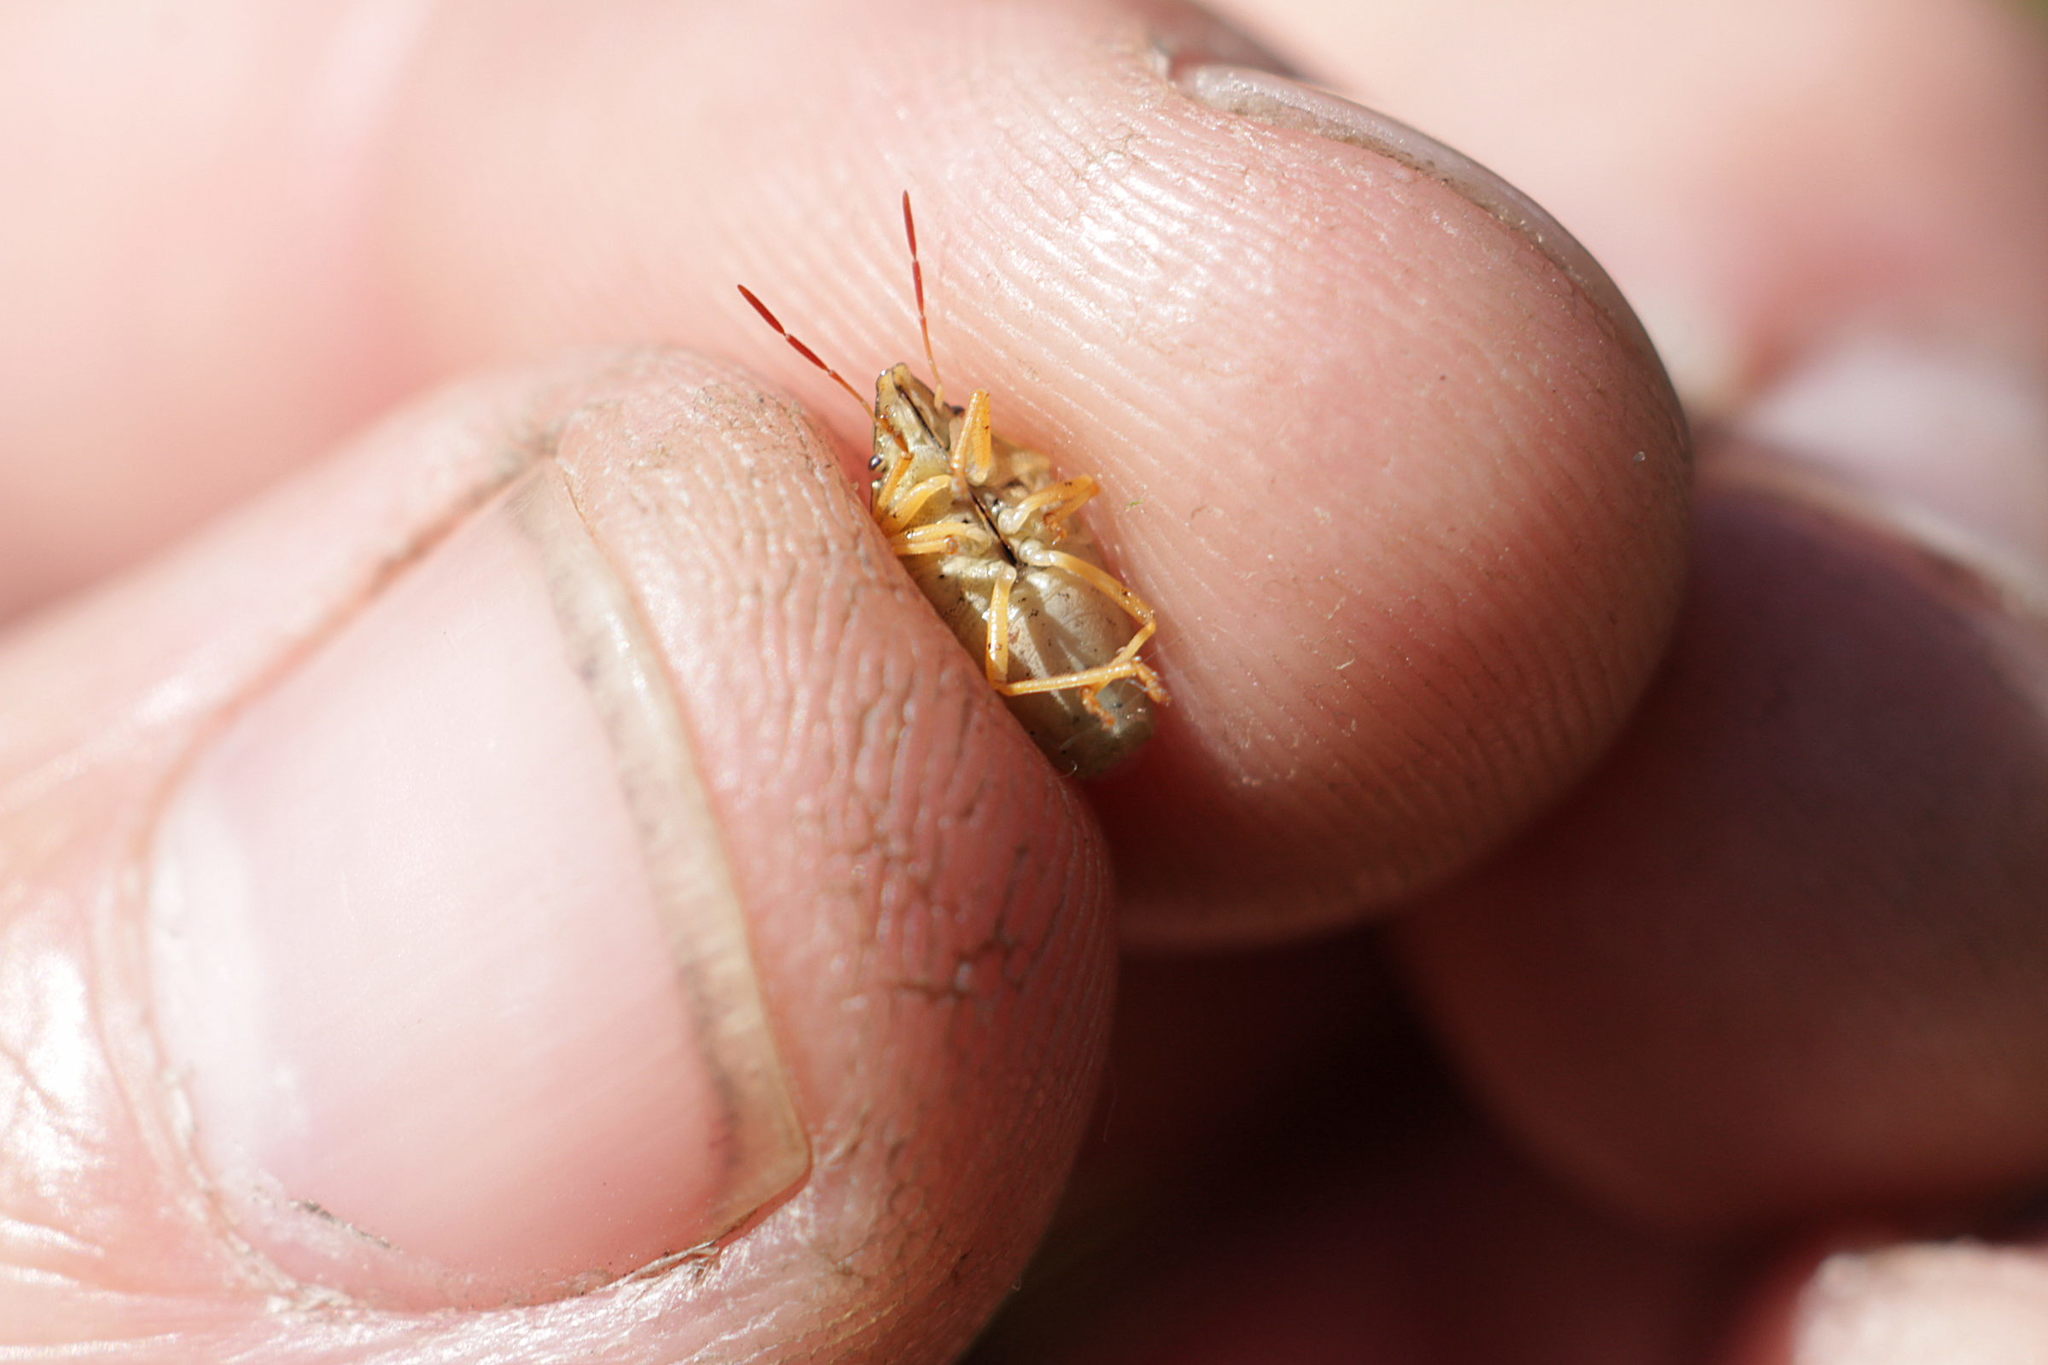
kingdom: Animalia
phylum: Arthropoda
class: Insecta
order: Hemiptera
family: Pentatomidae
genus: Aelia
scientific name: Aelia acuminata
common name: Bishop's mitre
